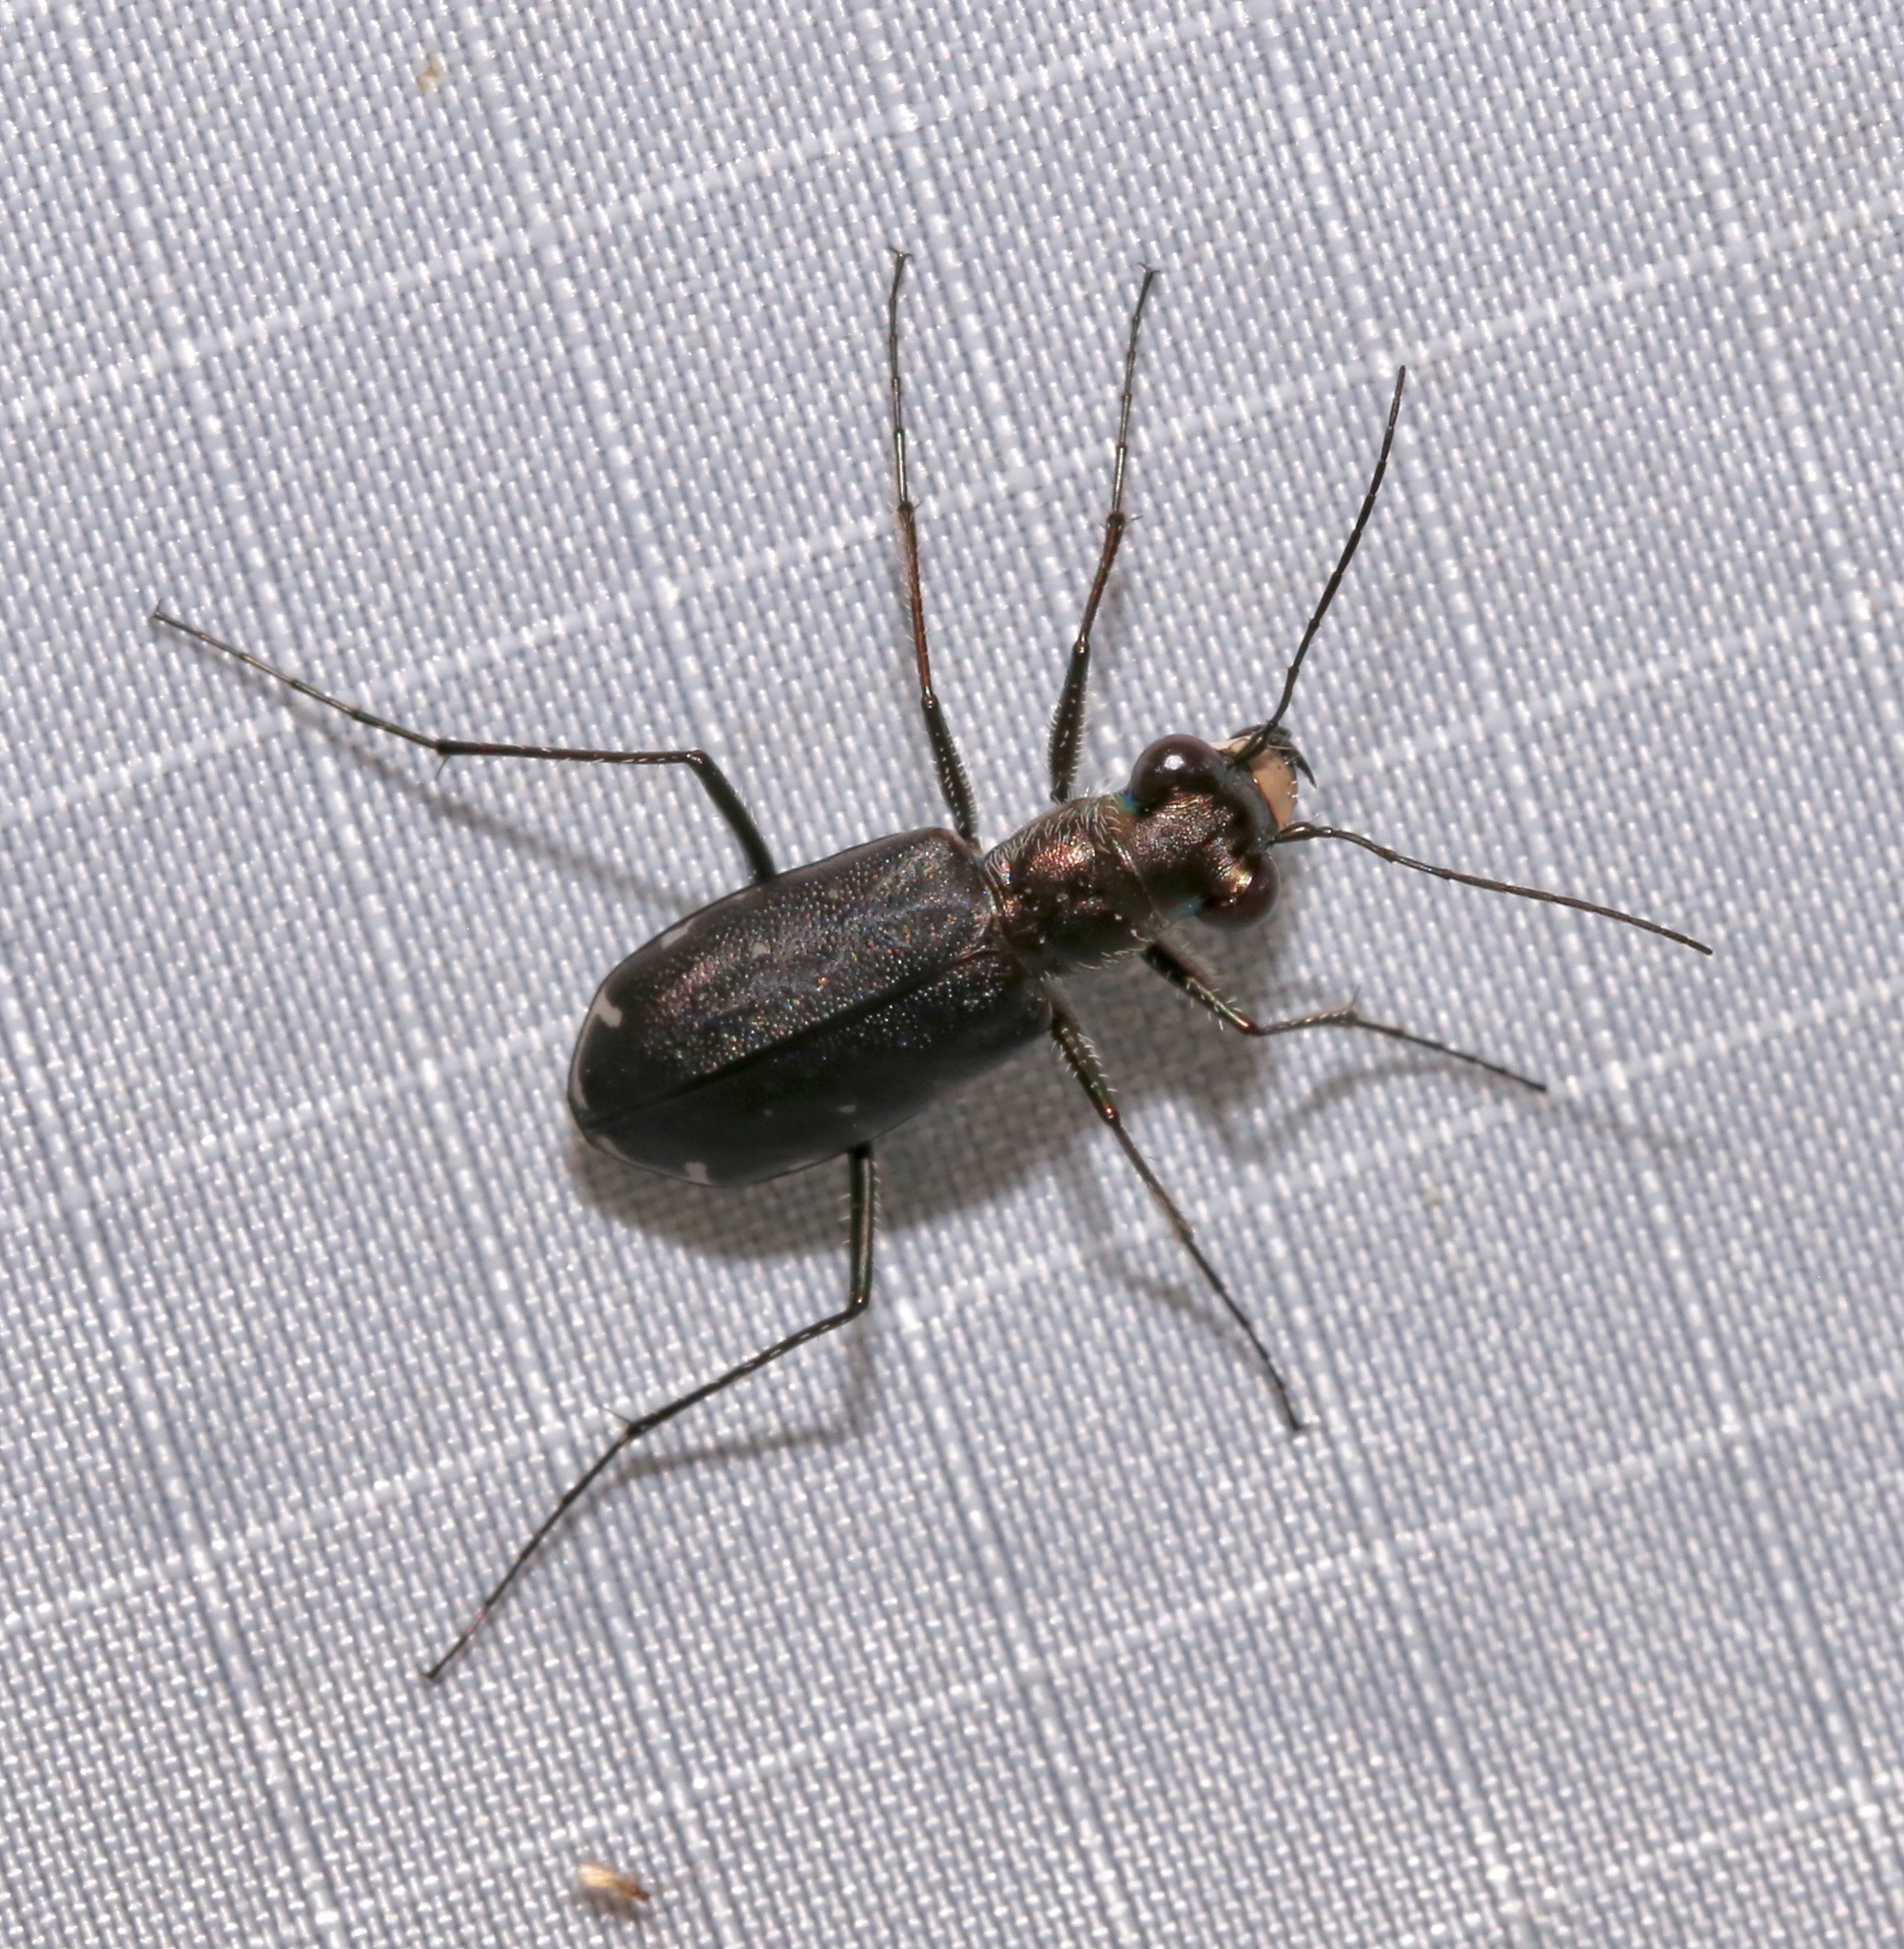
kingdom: Animalia
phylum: Arthropoda
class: Insecta
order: Coleoptera
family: Carabidae
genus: Cicindela
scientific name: Cicindela punctulata
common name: Punctured tiger beetle
